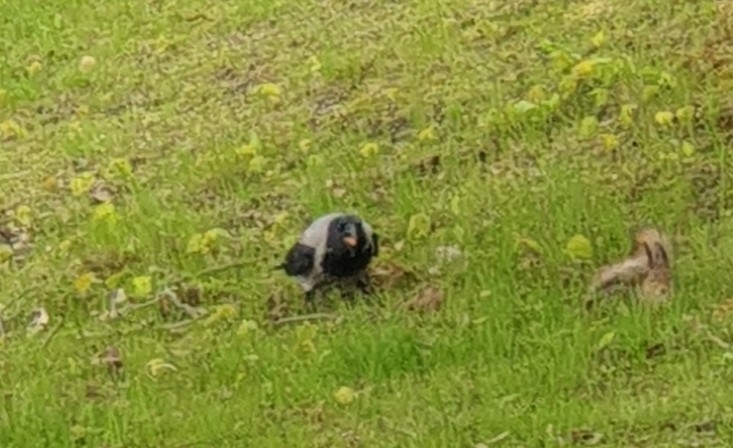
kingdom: Animalia
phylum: Chordata
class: Aves
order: Passeriformes
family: Corvidae
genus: Corvus
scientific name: Corvus cornix
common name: Hooded crow
